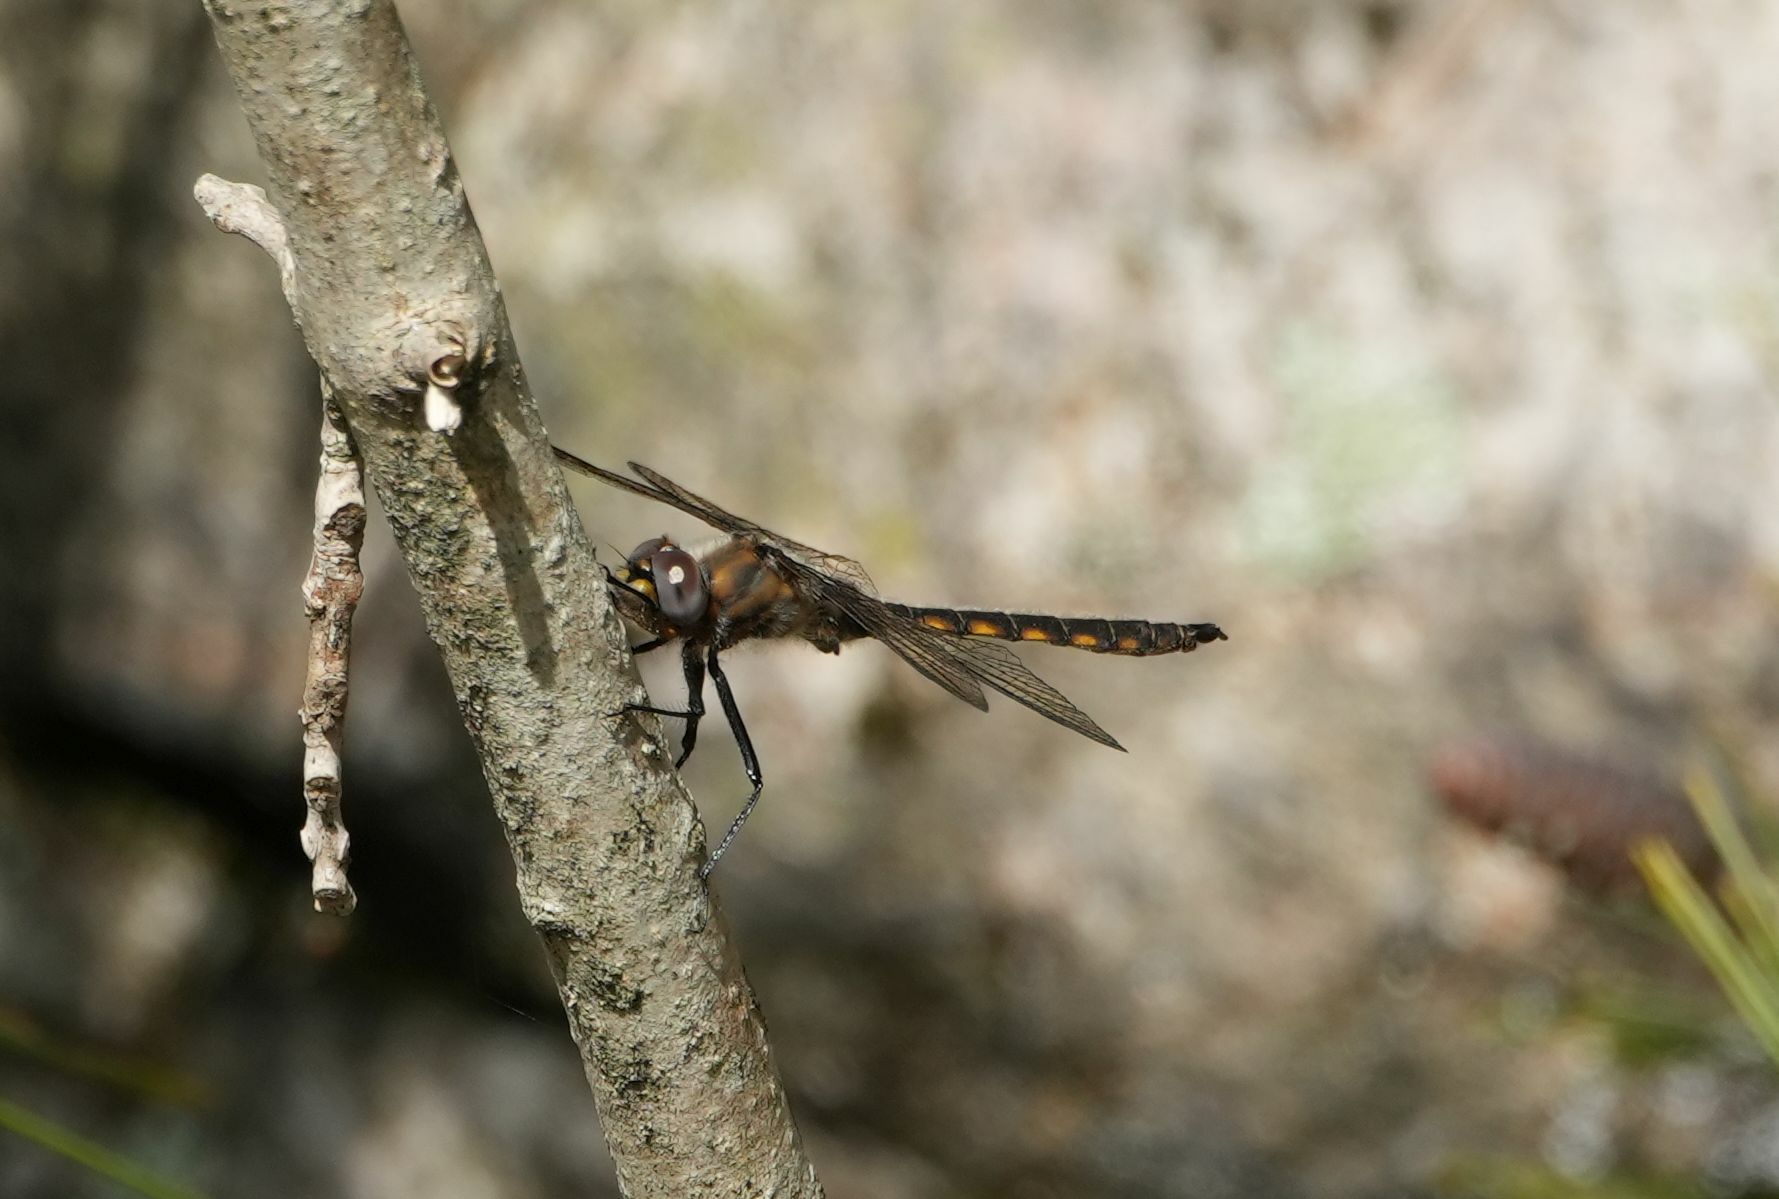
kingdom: Animalia
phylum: Arthropoda
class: Insecta
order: Odonata
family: Corduliidae
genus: Epitheca
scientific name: Epitheca canis
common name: Beaverpond baskettail
